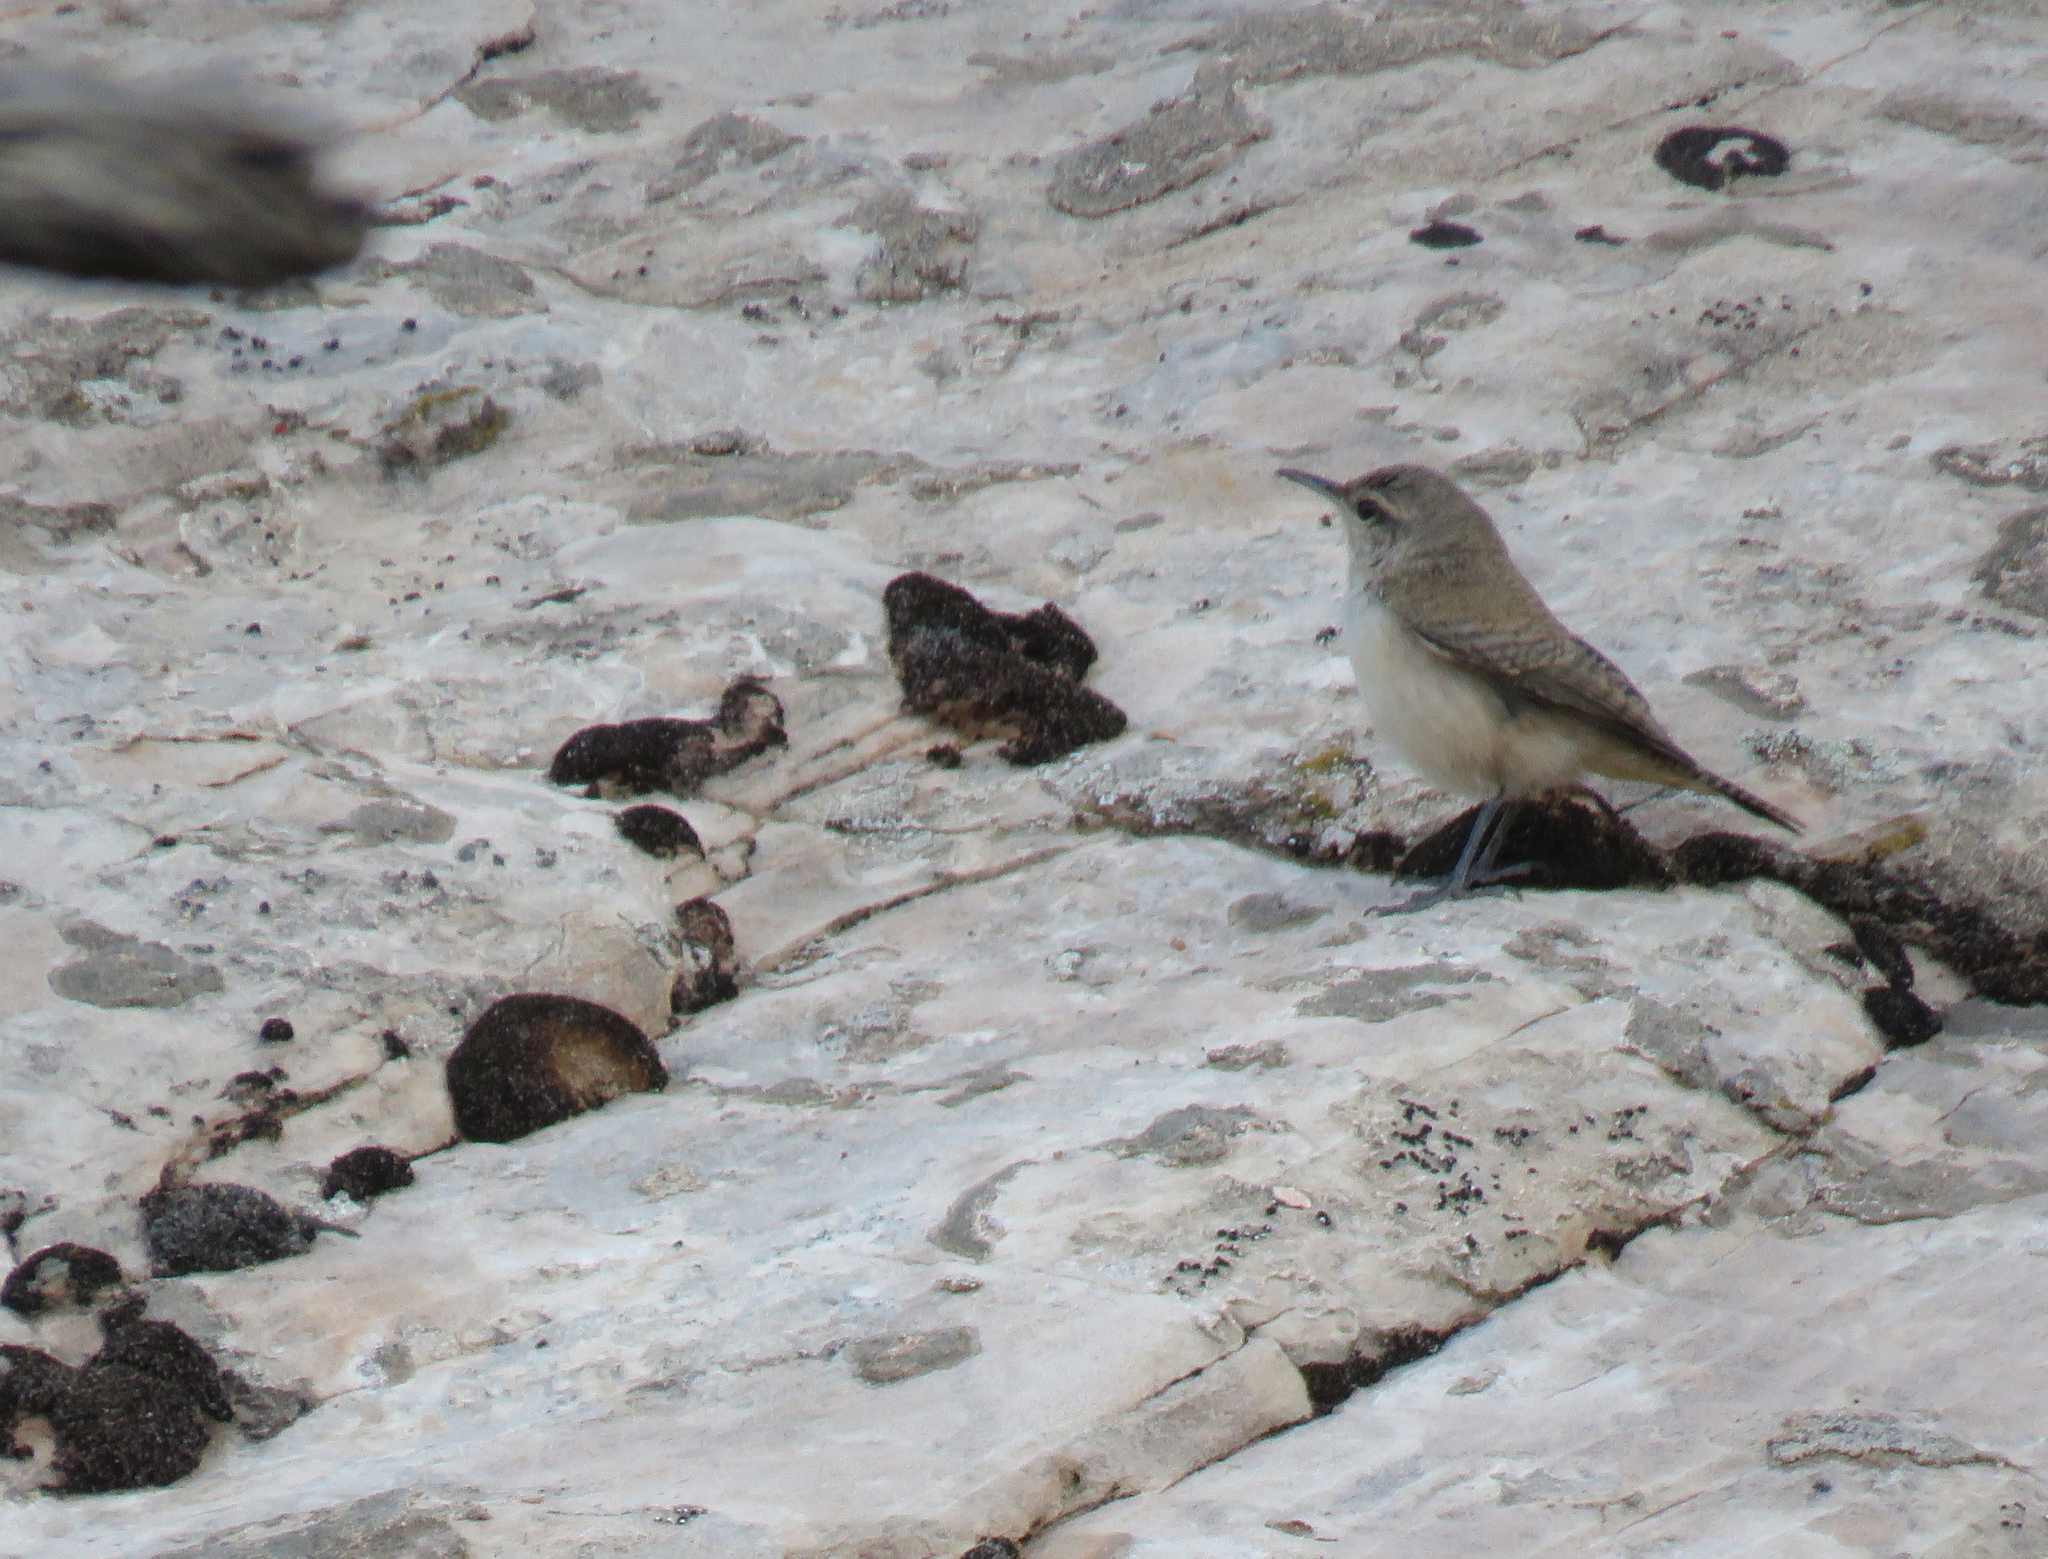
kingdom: Animalia
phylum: Chordata
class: Aves
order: Passeriformes
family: Troglodytidae
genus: Salpinctes
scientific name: Salpinctes obsoletus
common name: Rock wren
